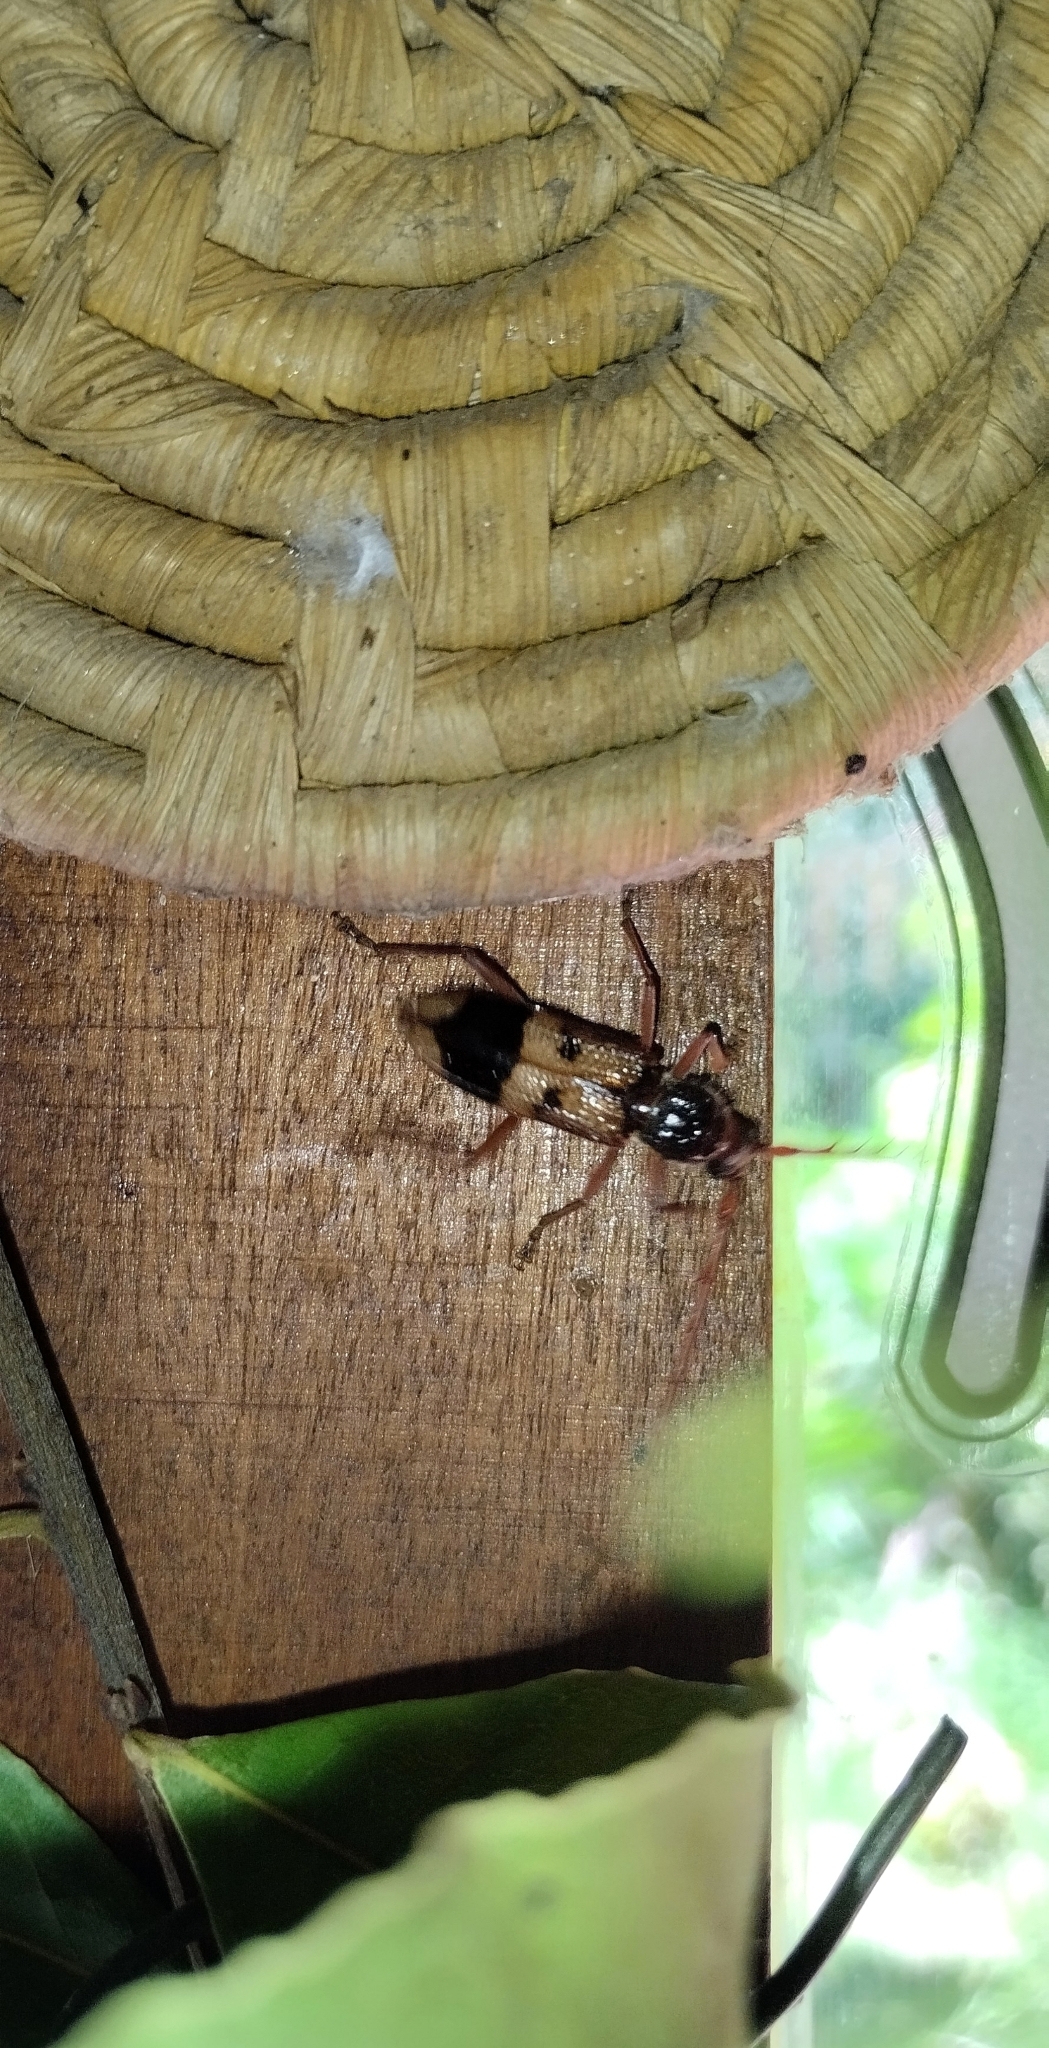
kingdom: Animalia
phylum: Arthropoda
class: Insecta
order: Coleoptera
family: Cerambycidae
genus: Phoracantha
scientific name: Phoracantha recurva
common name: Eucalyptus longhorned borer
